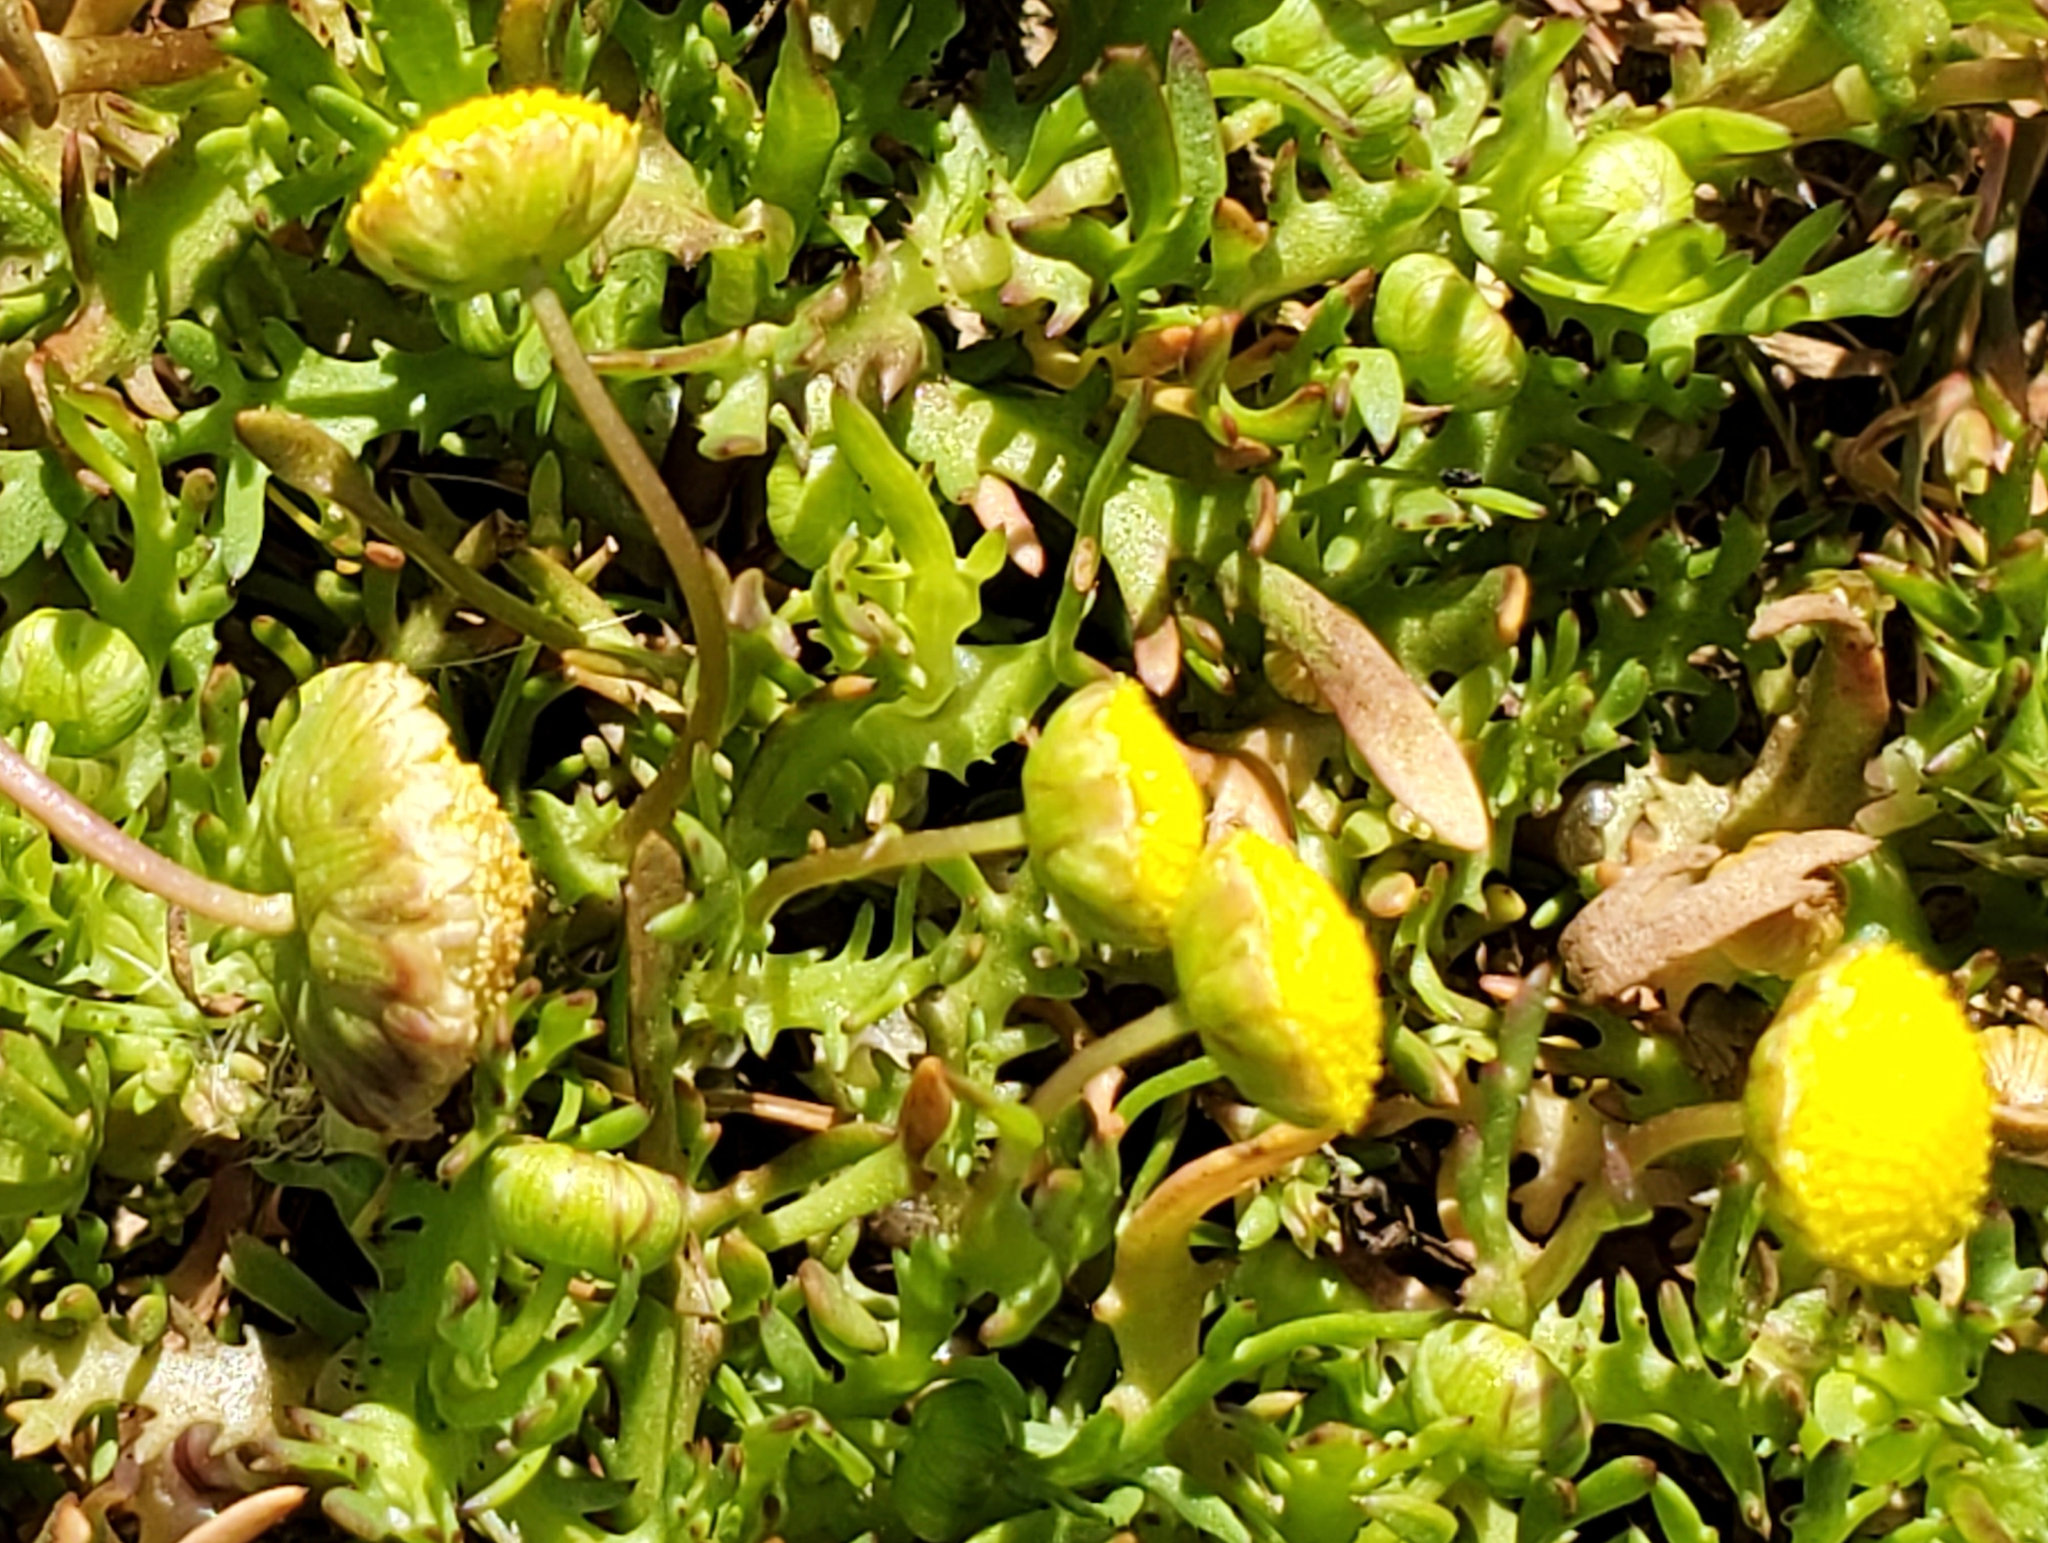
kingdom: Plantae
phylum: Tracheophyta
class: Magnoliopsida
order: Asterales
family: Asteraceae
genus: Cotula
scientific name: Cotula coronopifolia
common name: Buttonweed
